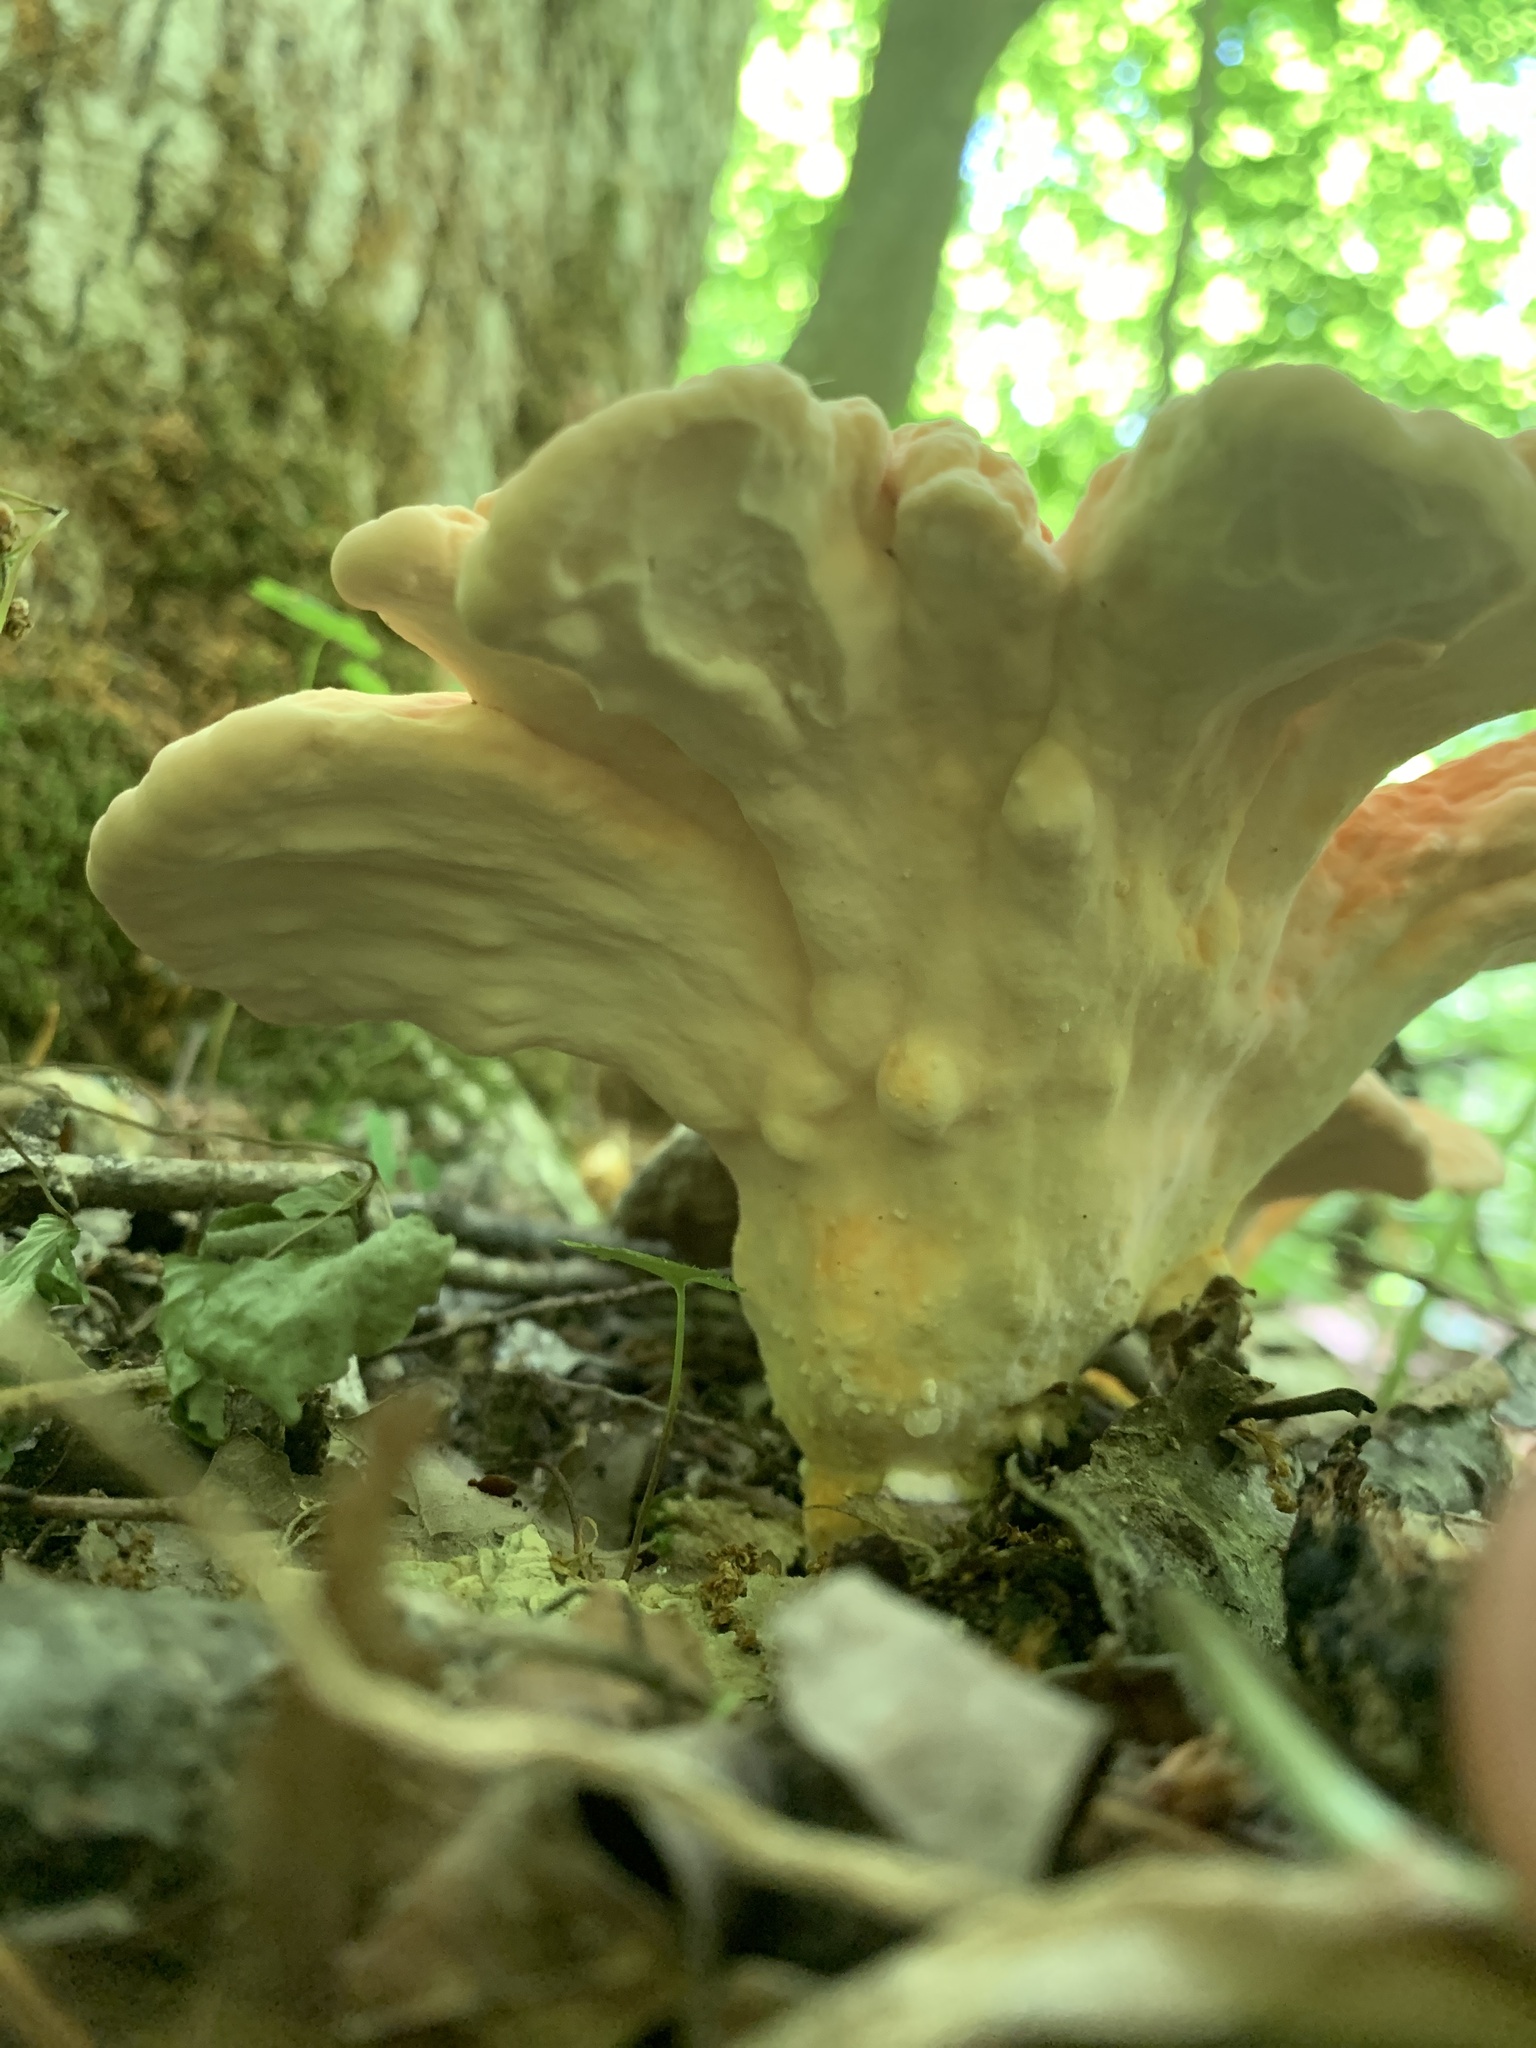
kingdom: Fungi
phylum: Basidiomycota
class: Agaricomycetes
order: Polyporales
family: Laetiporaceae
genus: Laetiporus
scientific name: Laetiporus sulphureus
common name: Chicken of the woods
